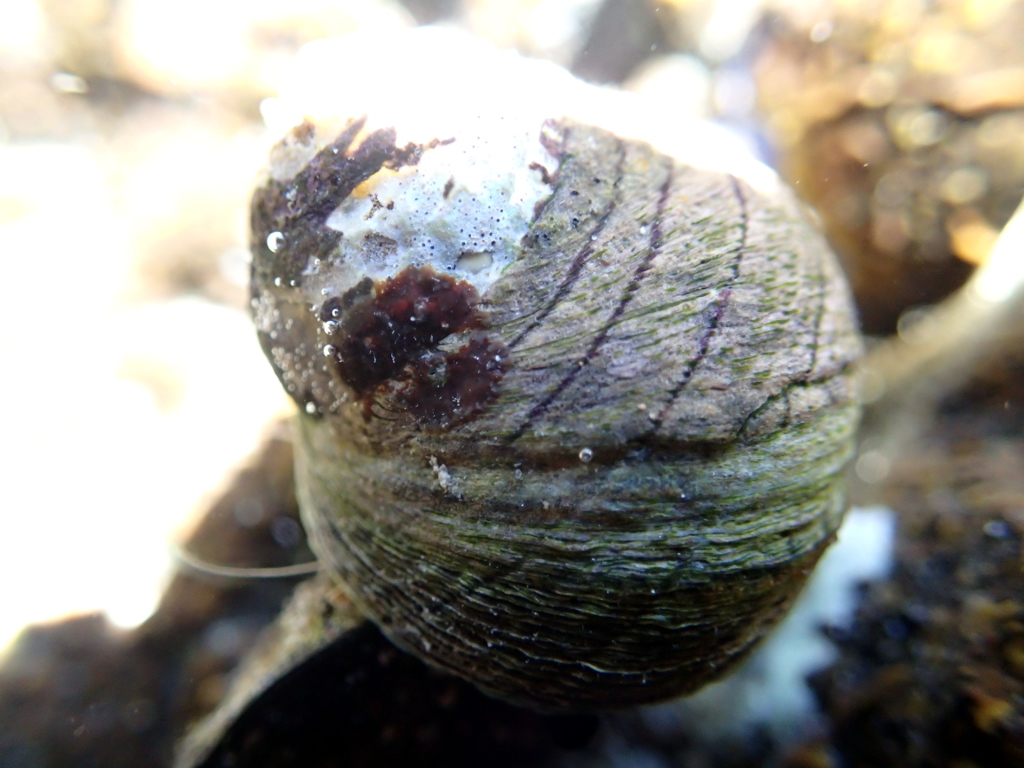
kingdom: Animalia
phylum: Mollusca
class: Gastropoda
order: Trochida
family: Trochidae
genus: Diloma
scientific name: Diloma aethiops
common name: Scorched monodont
